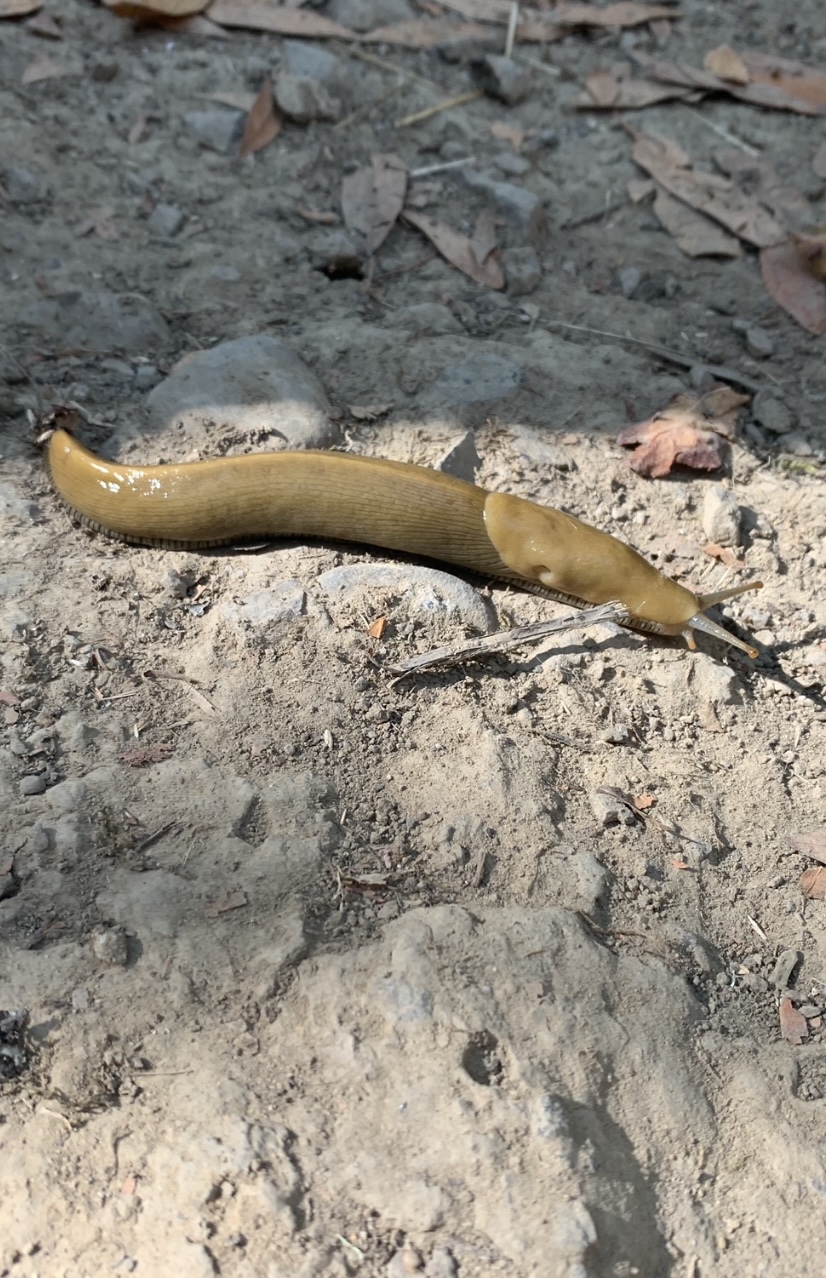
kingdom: Animalia
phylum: Mollusca
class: Gastropoda
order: Stylommatophora
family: Ariolimacidae
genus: Ariolimax
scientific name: Ariolimax buttoni
